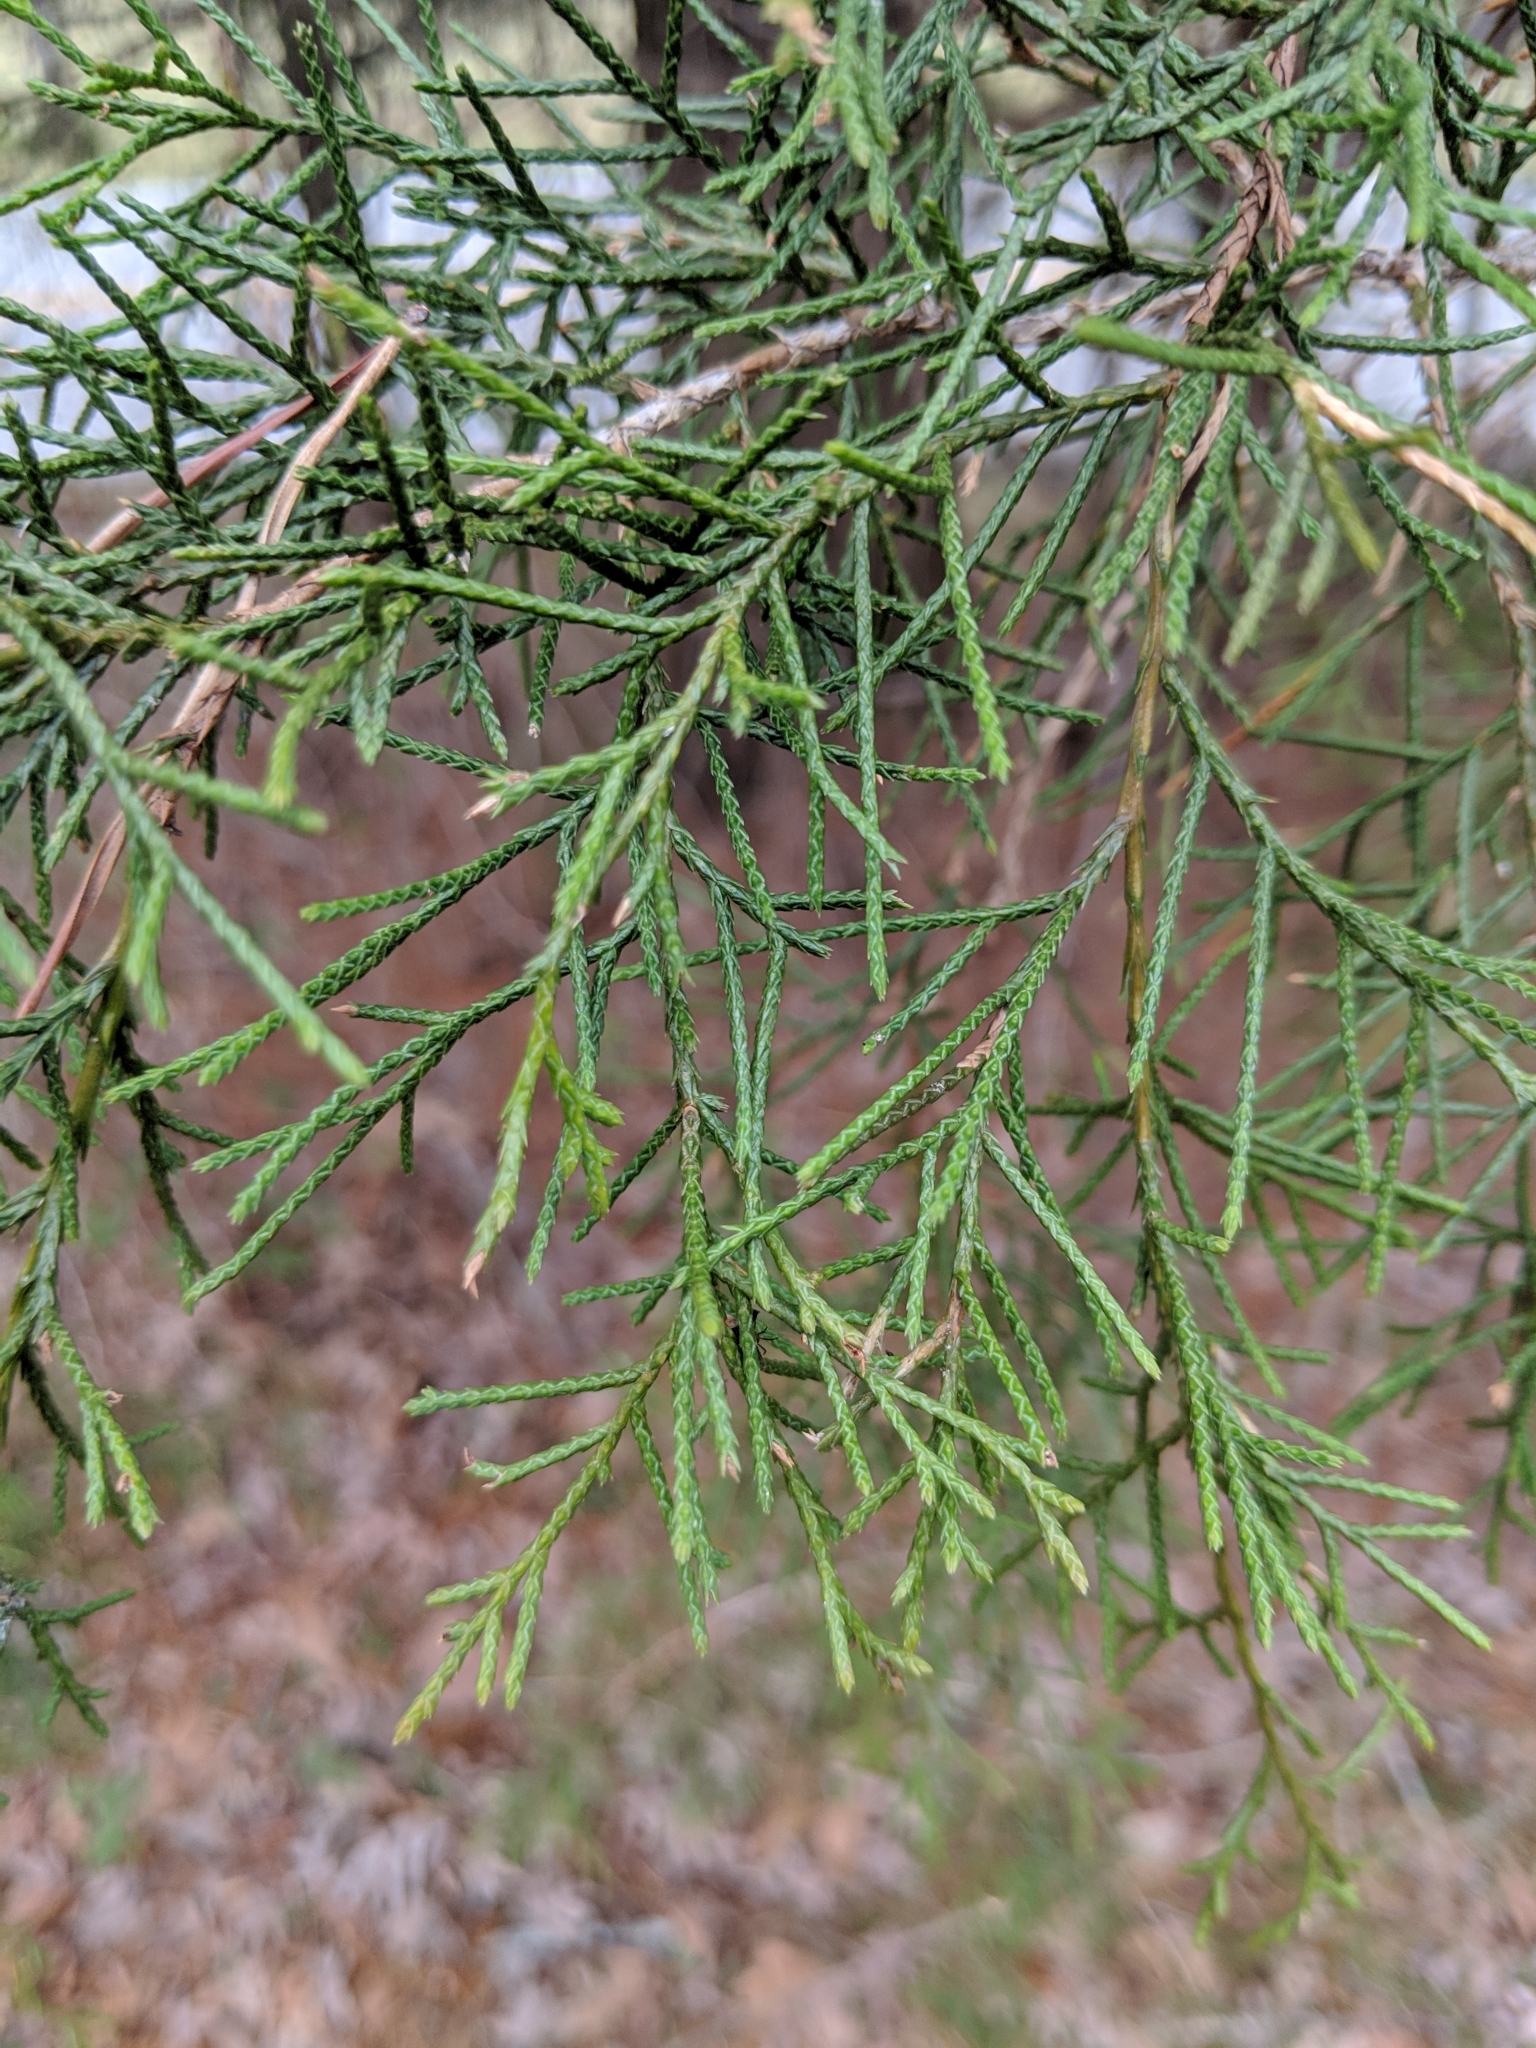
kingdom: Plantae
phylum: Tracheophyta
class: Pinopsida
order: Pinales
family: Cupressaceae
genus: Juniperus
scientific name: Juniperus virginiana
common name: Red juniper
